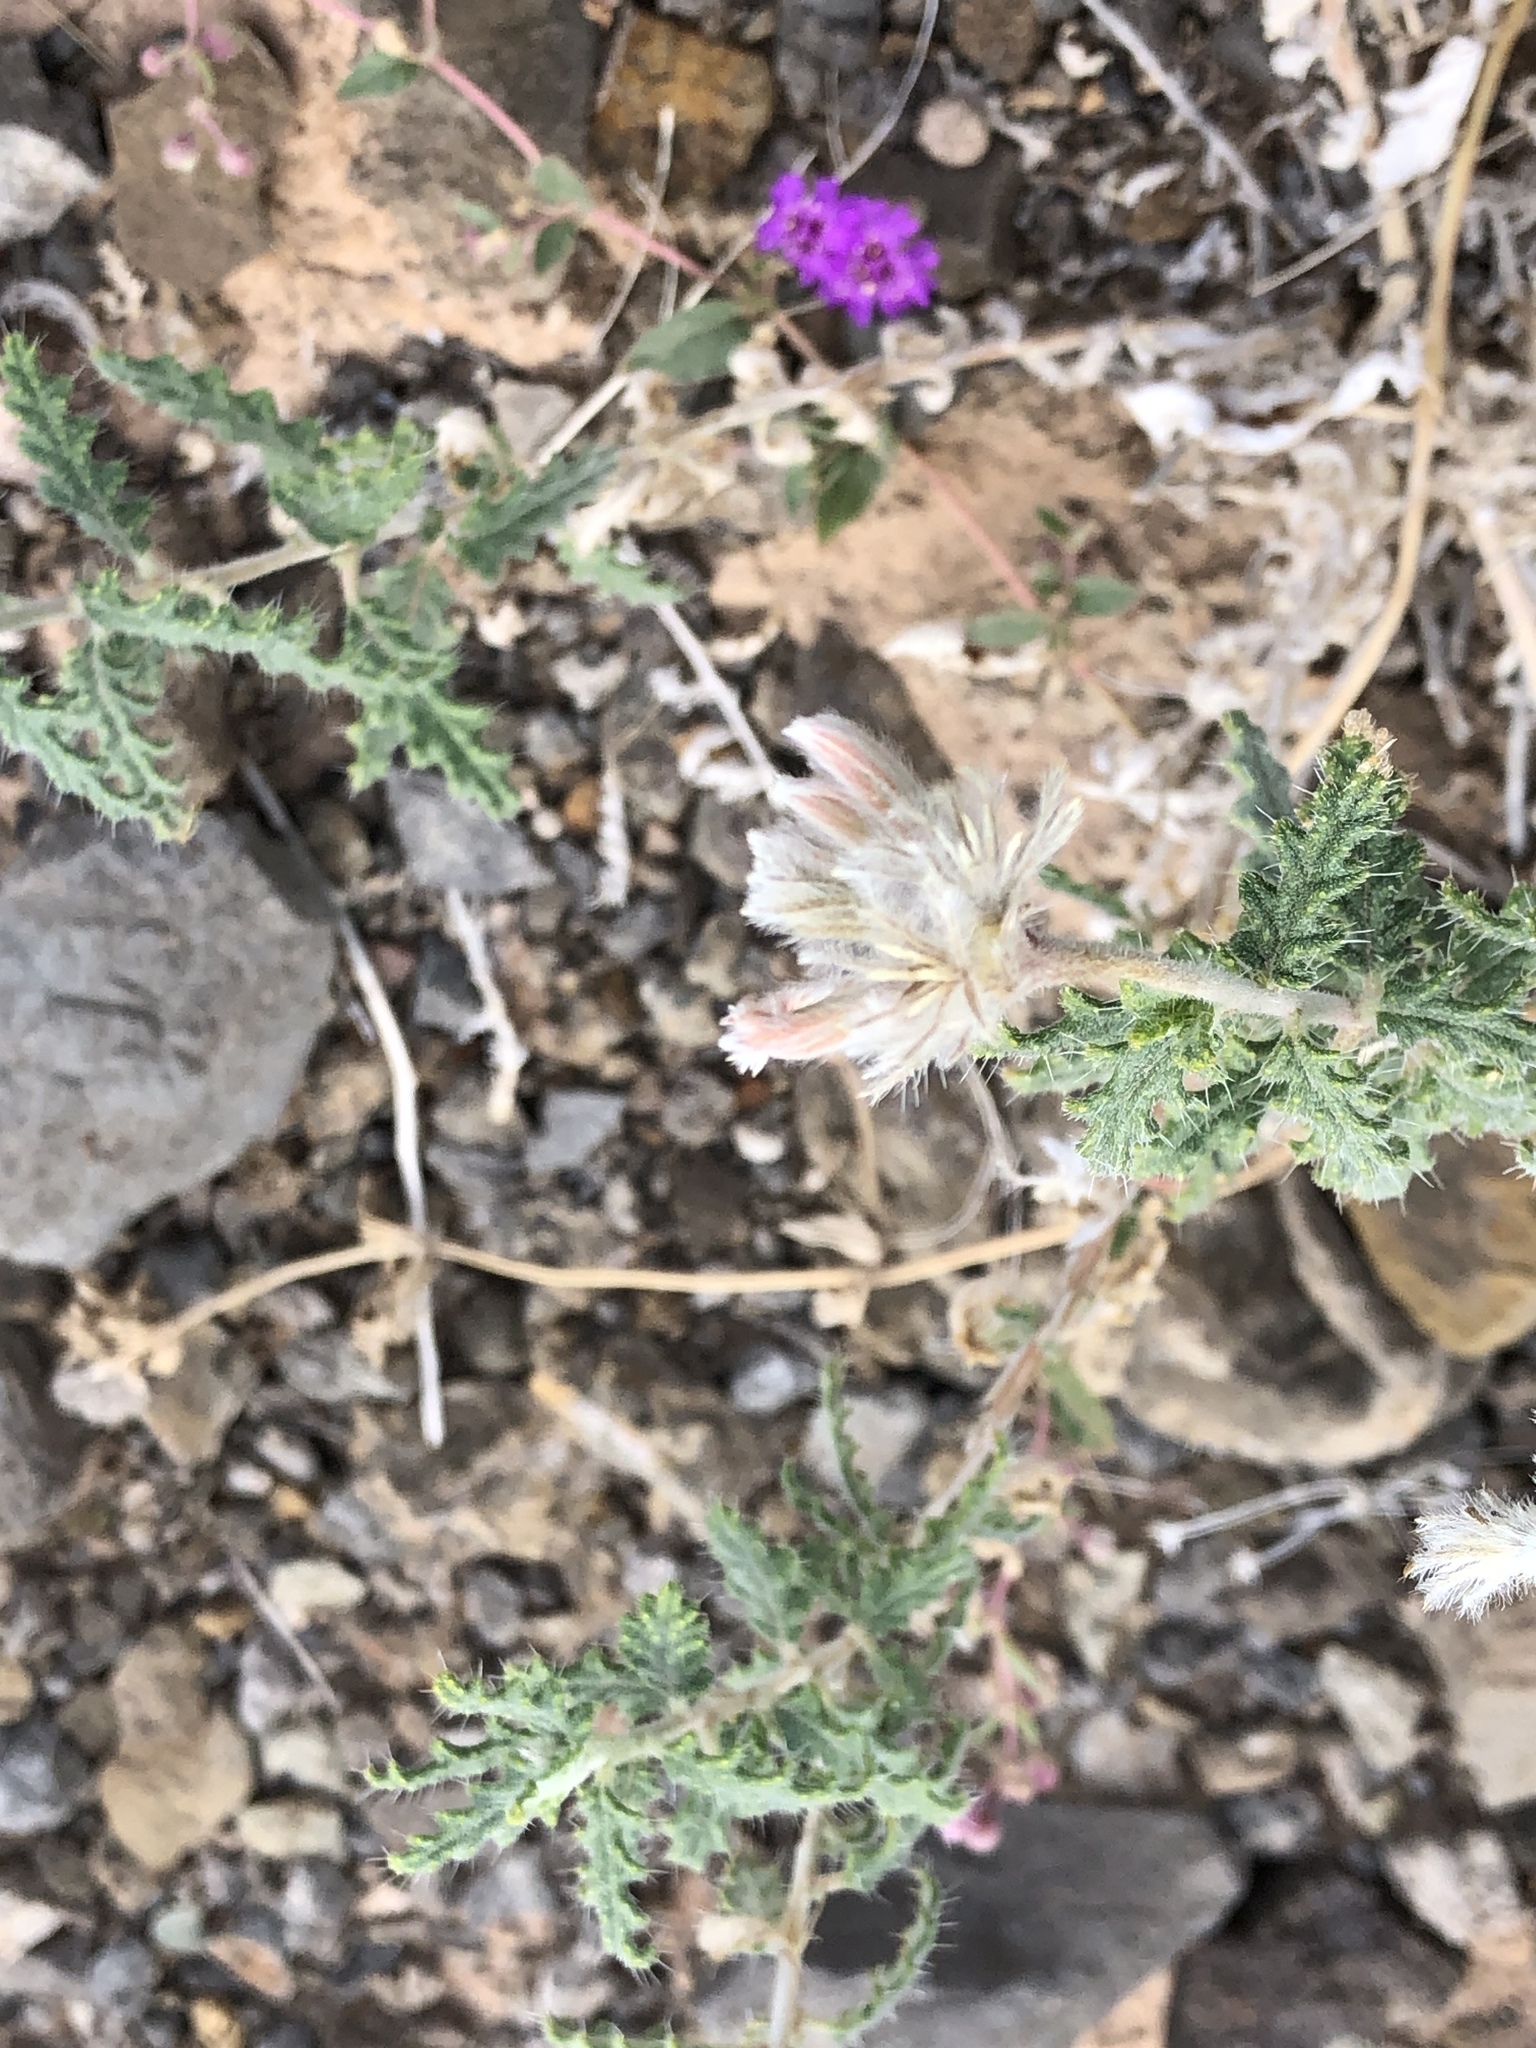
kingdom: Plantae
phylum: Tracheophyta
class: Magnoliopsida
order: Cornales
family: Loasaceae
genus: Cevallia
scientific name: Cevallia sinuata
